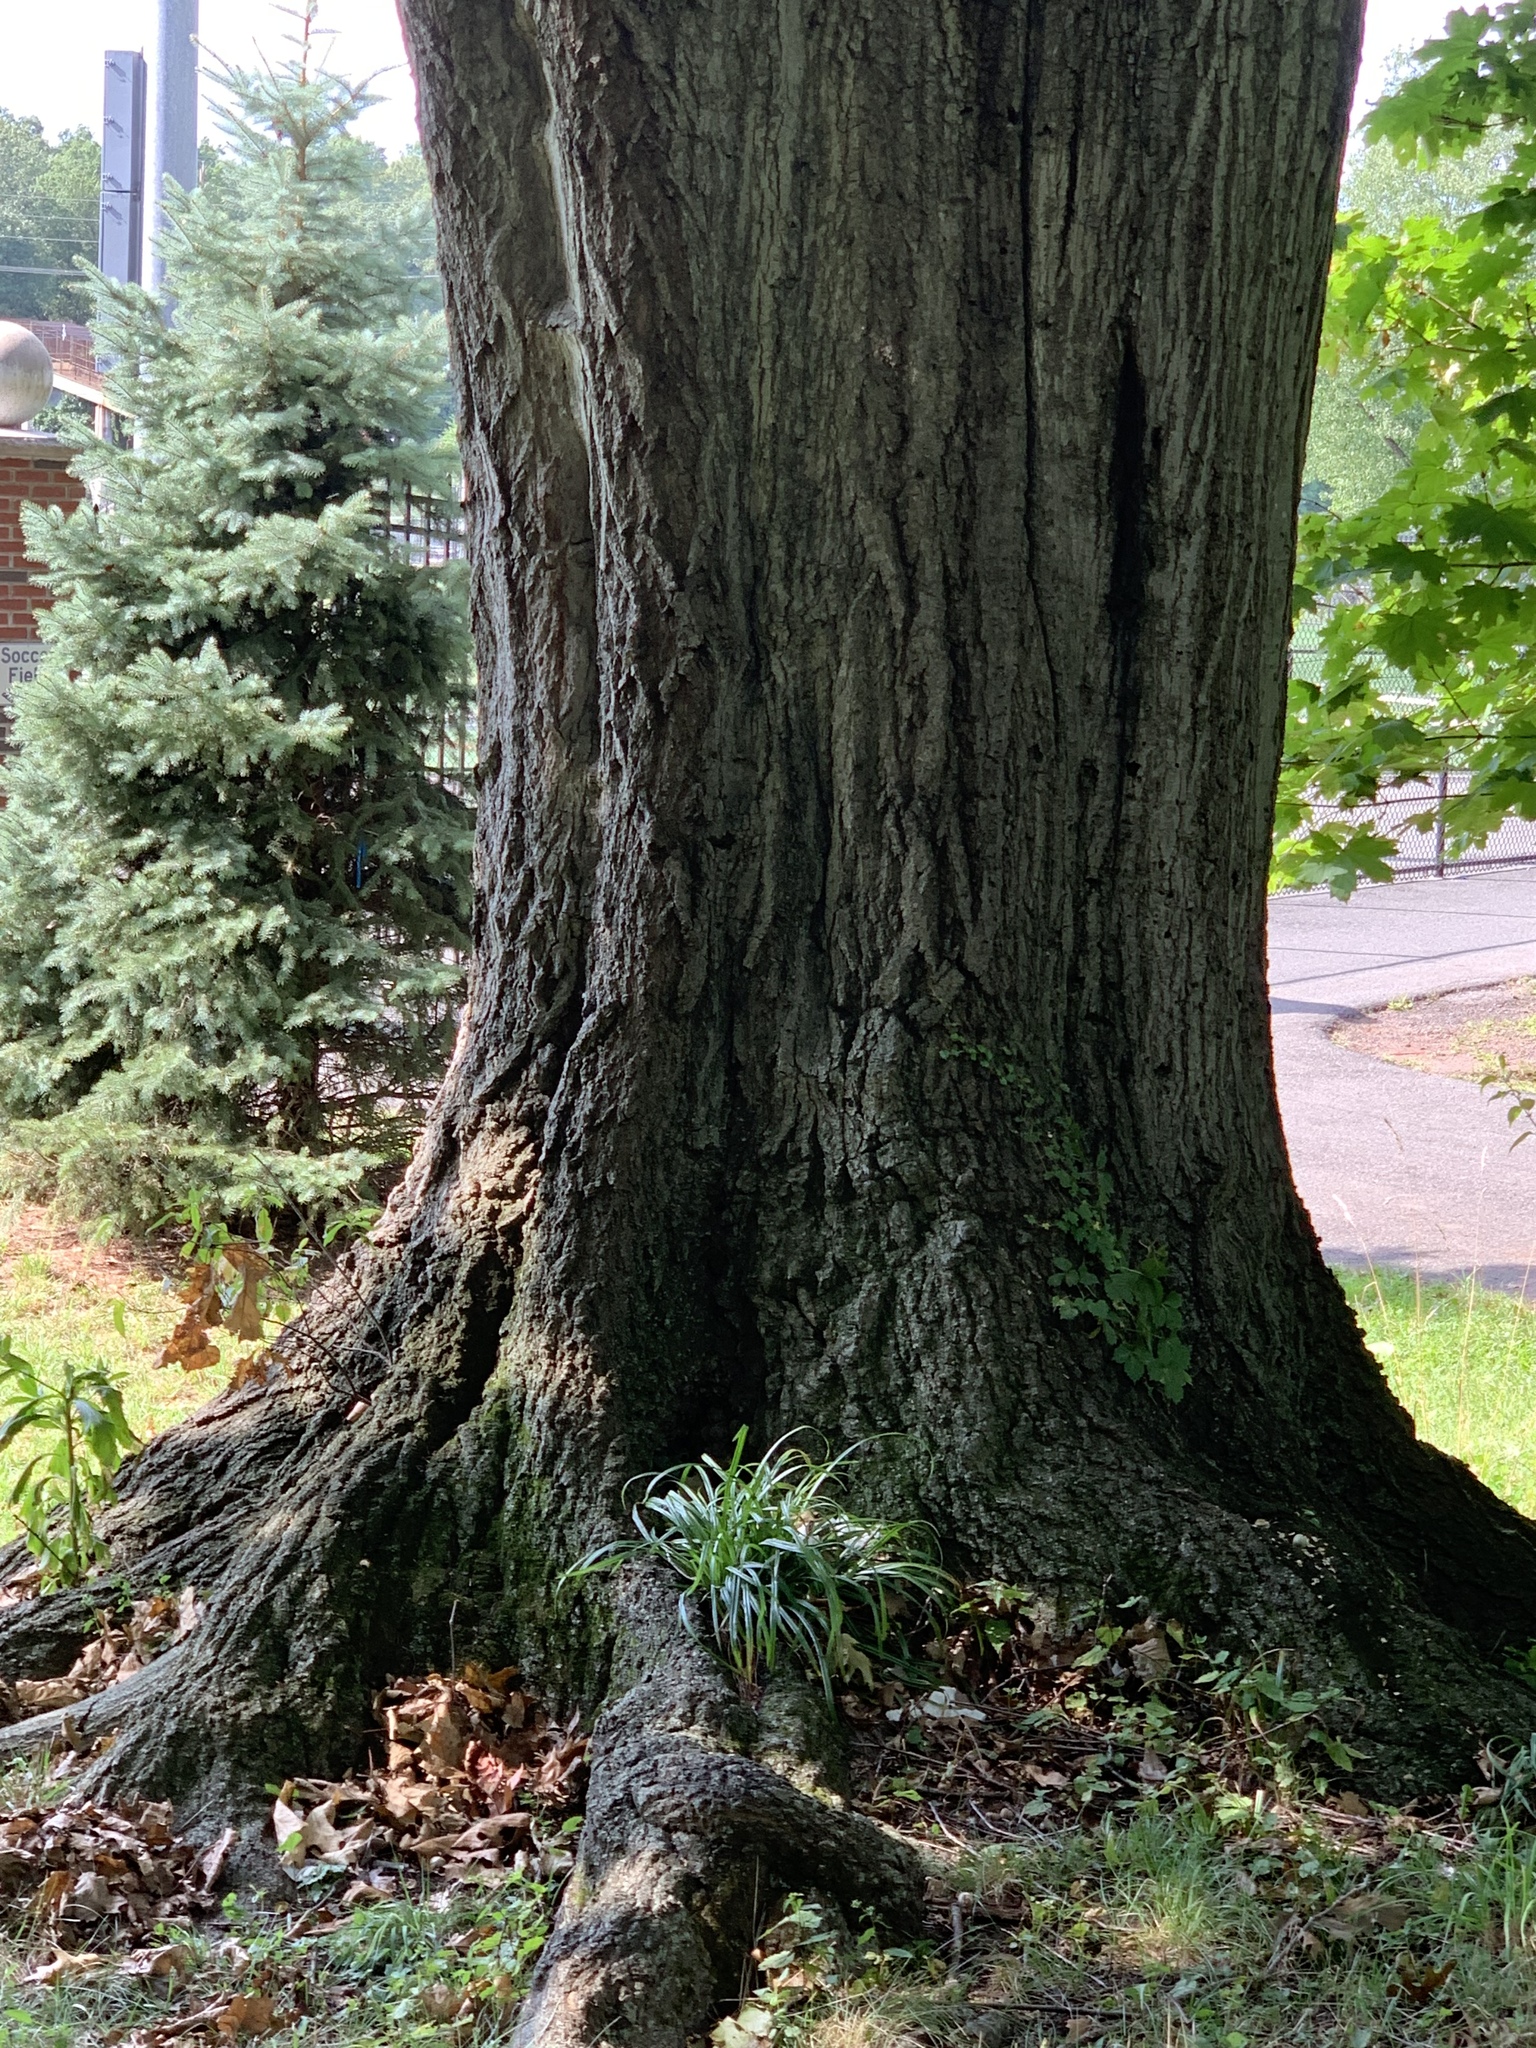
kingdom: Plantae
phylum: Tracheophyta
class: Magnoliopsida
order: Fagales
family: Fagaceae
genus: Quercus
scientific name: Quercus rubra
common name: Red oak
